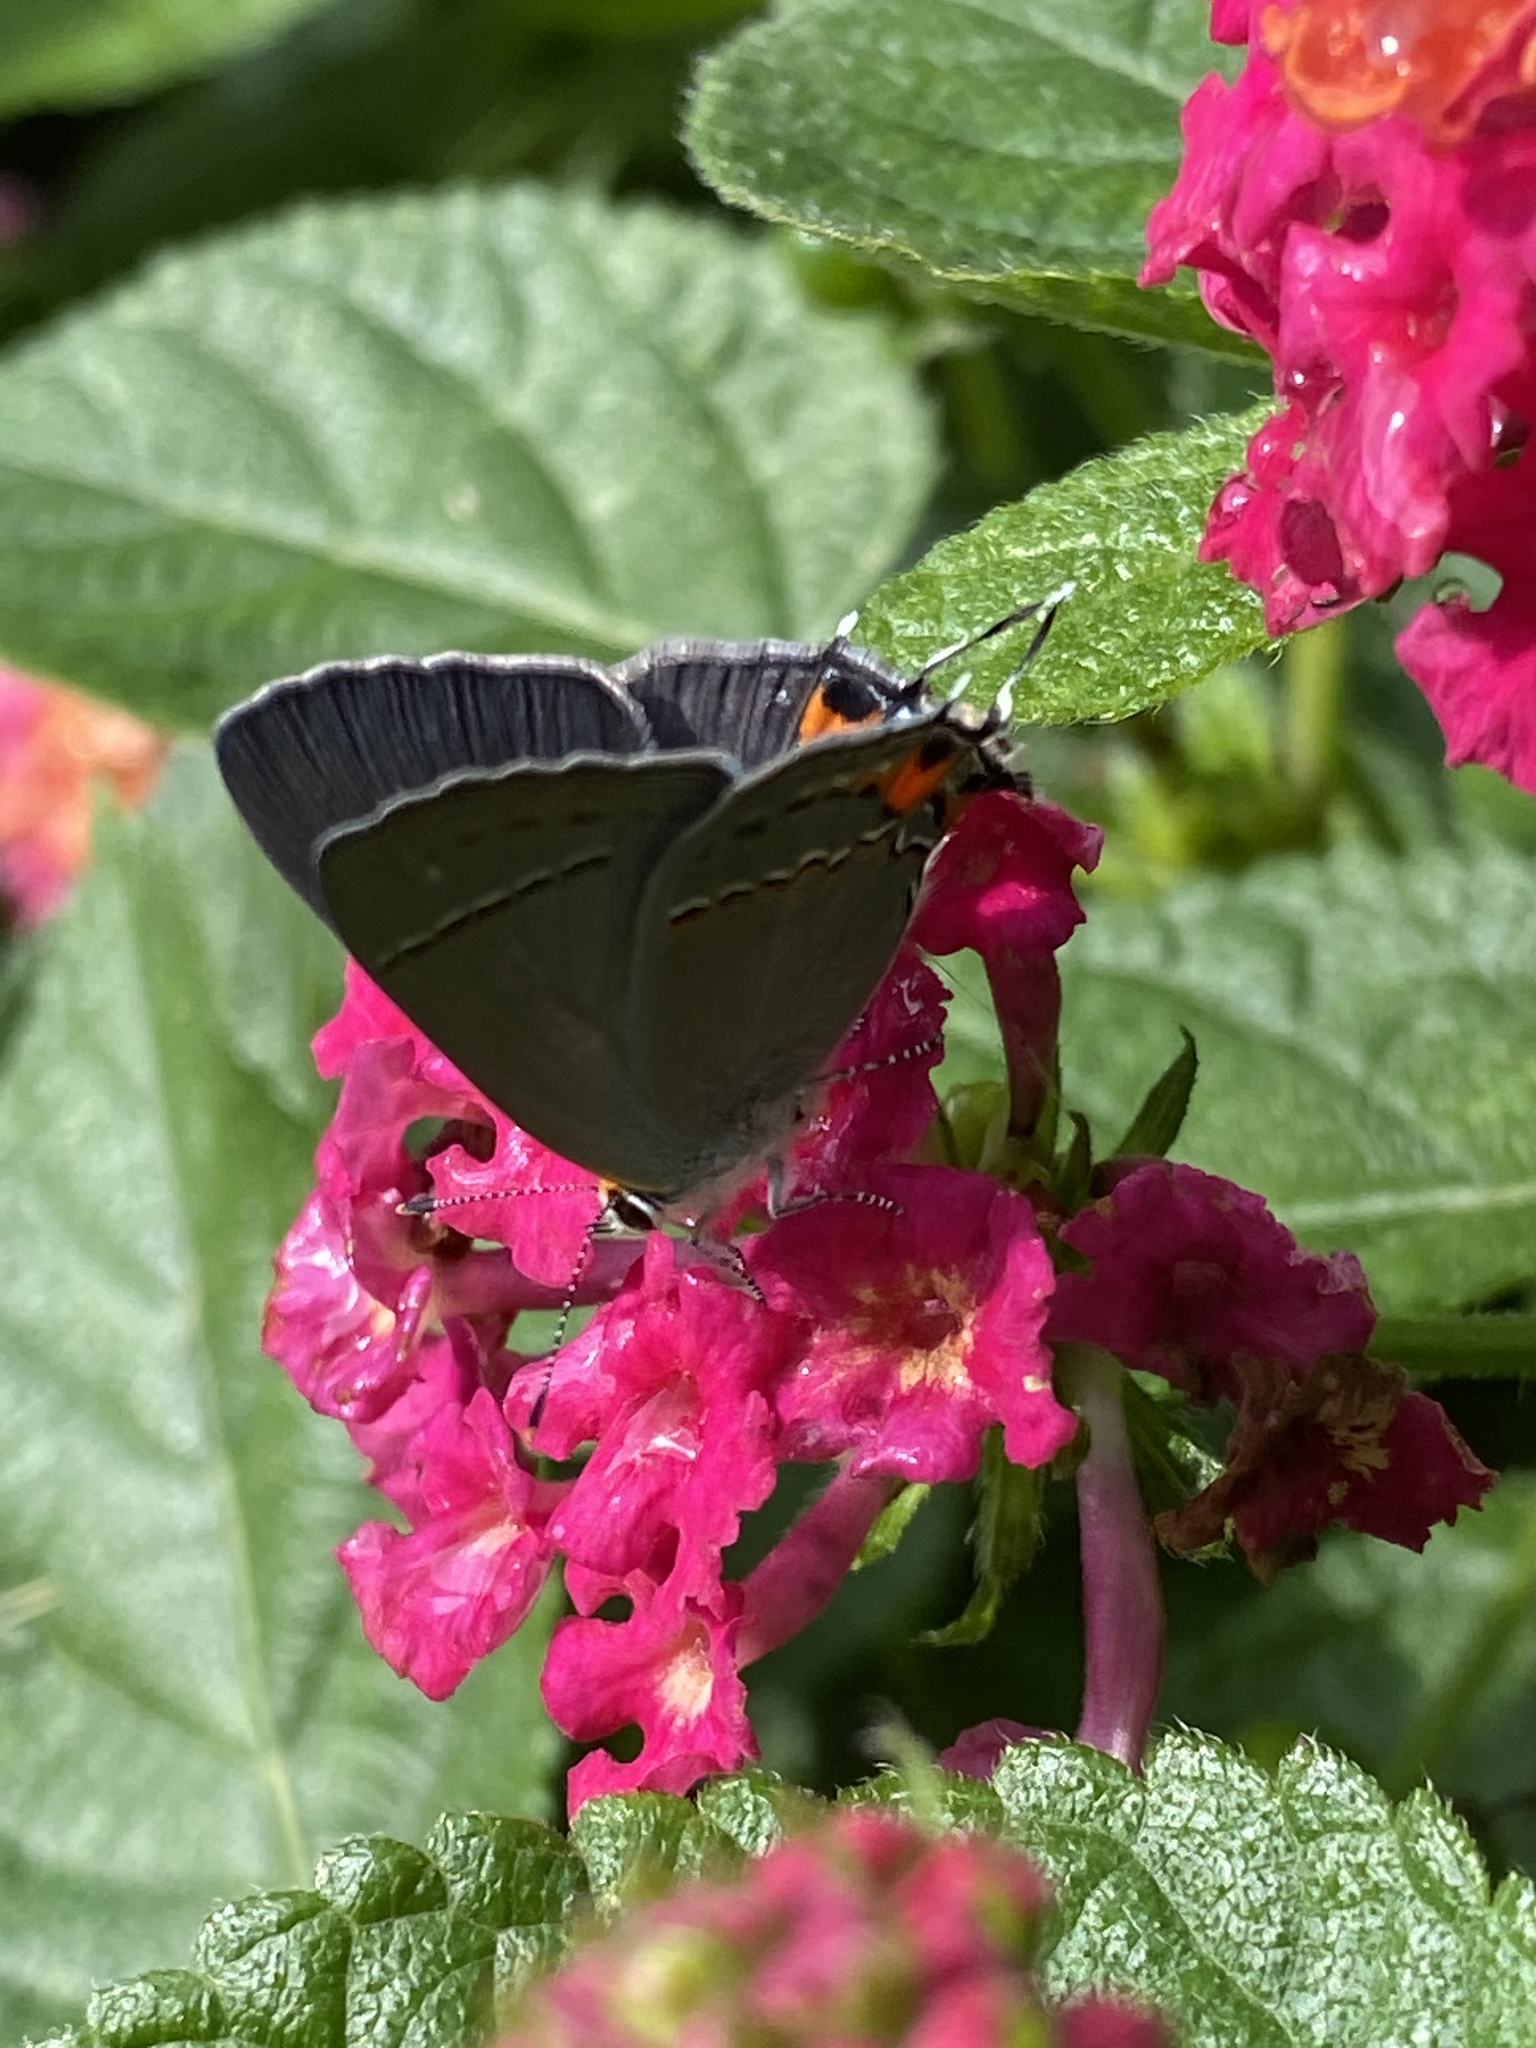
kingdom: Animalia
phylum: Arthropoda
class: Insecta
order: Lepidoptera
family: Lycaenidae
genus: Strymon
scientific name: Strymon melinus
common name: Gray hairstreak
